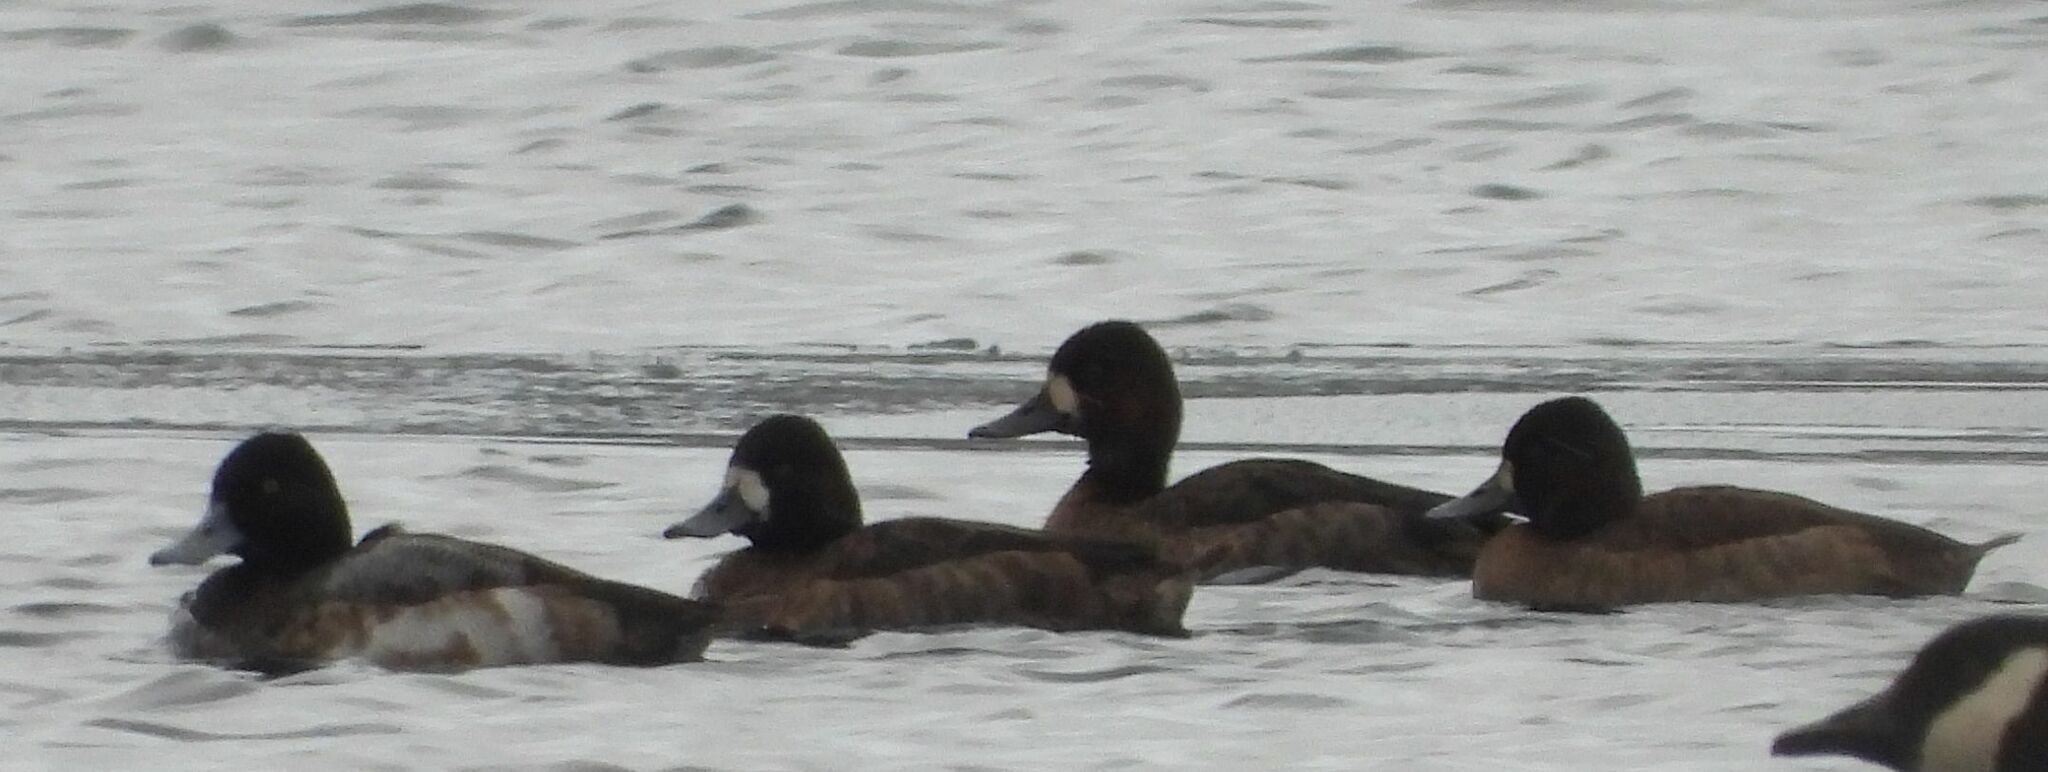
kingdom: Animalia
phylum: Chordata
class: Aves
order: Anseriformes
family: Anatidae
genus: Aythya
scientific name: Aythya affinis
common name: Lesser scaup
